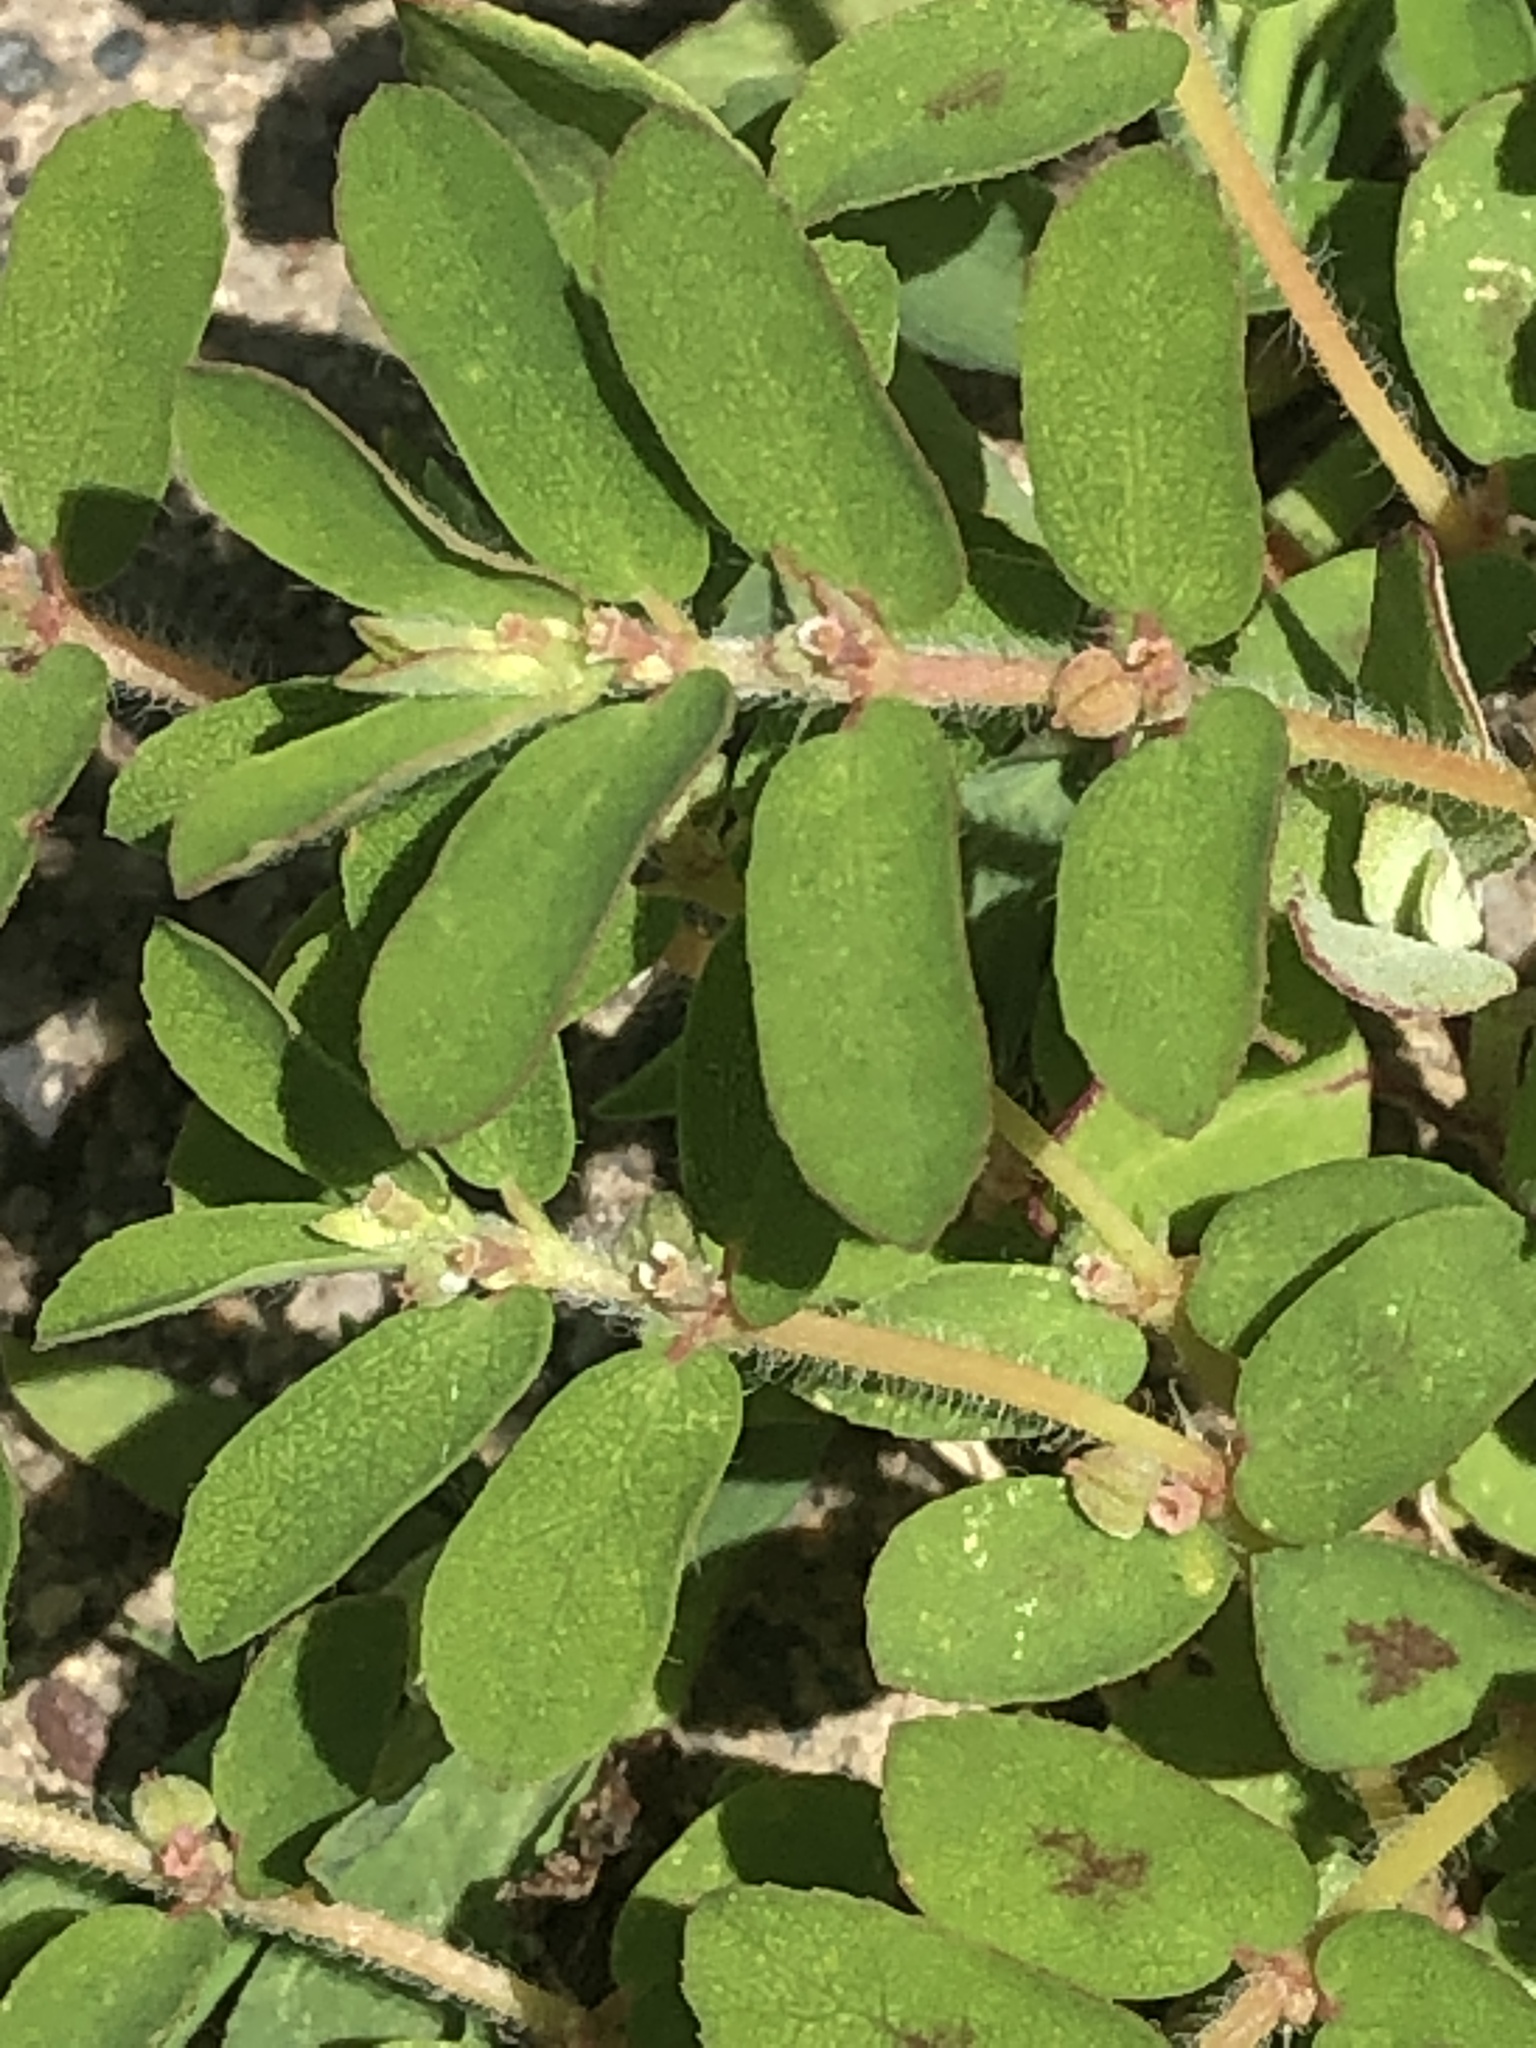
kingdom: Plantae
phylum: Tracheophyta
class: Magnoliopsida
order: Malpighiales
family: Euphorbiaceae
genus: Euphorbia
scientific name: Euphorbia maculata
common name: Spotted spurge
